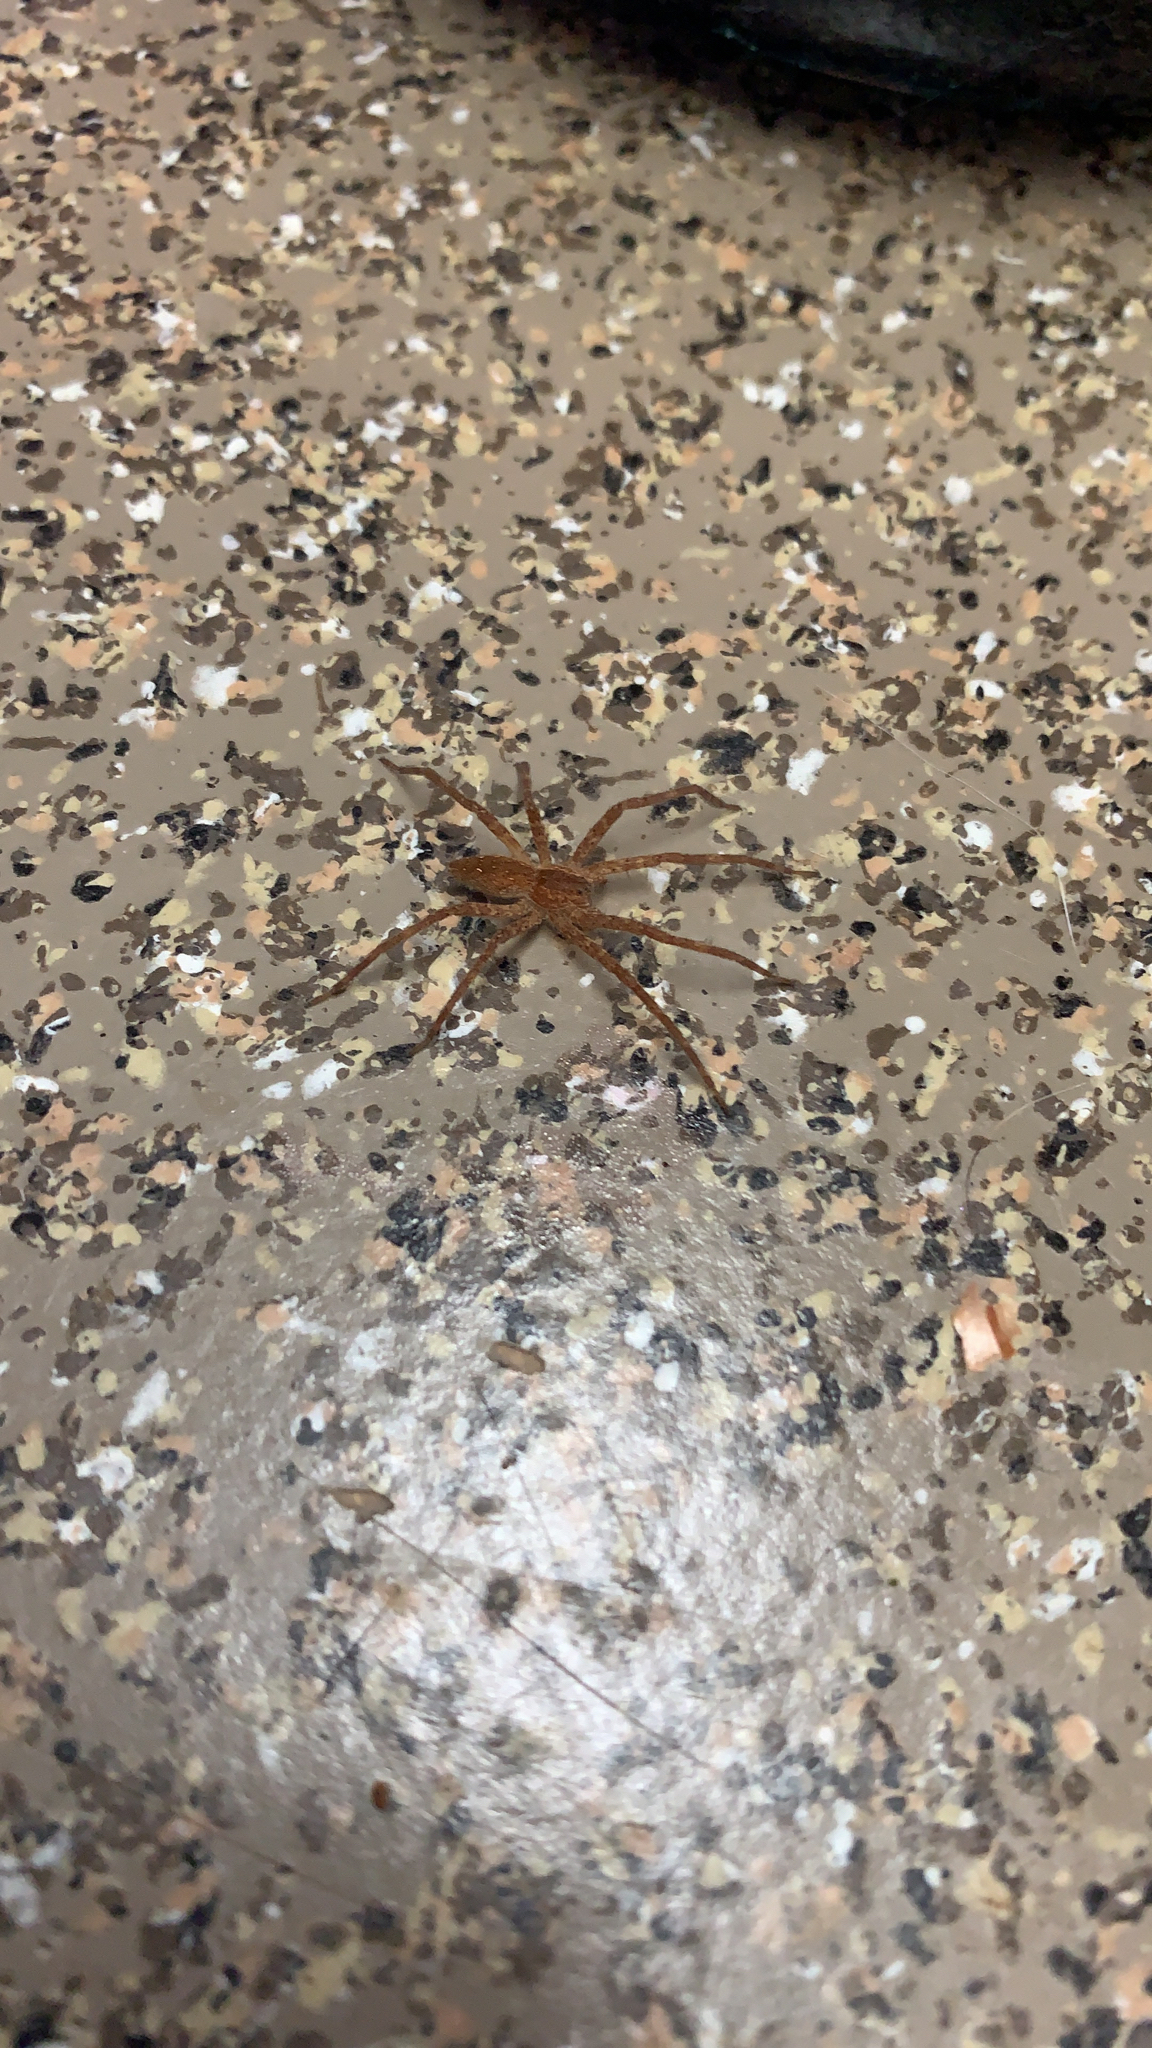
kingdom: Animalia
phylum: Arthropoda
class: Arachnida
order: Araneae
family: Pisauridae
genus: Pisaurina
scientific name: Pisaurina mira
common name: American nursery web spider
